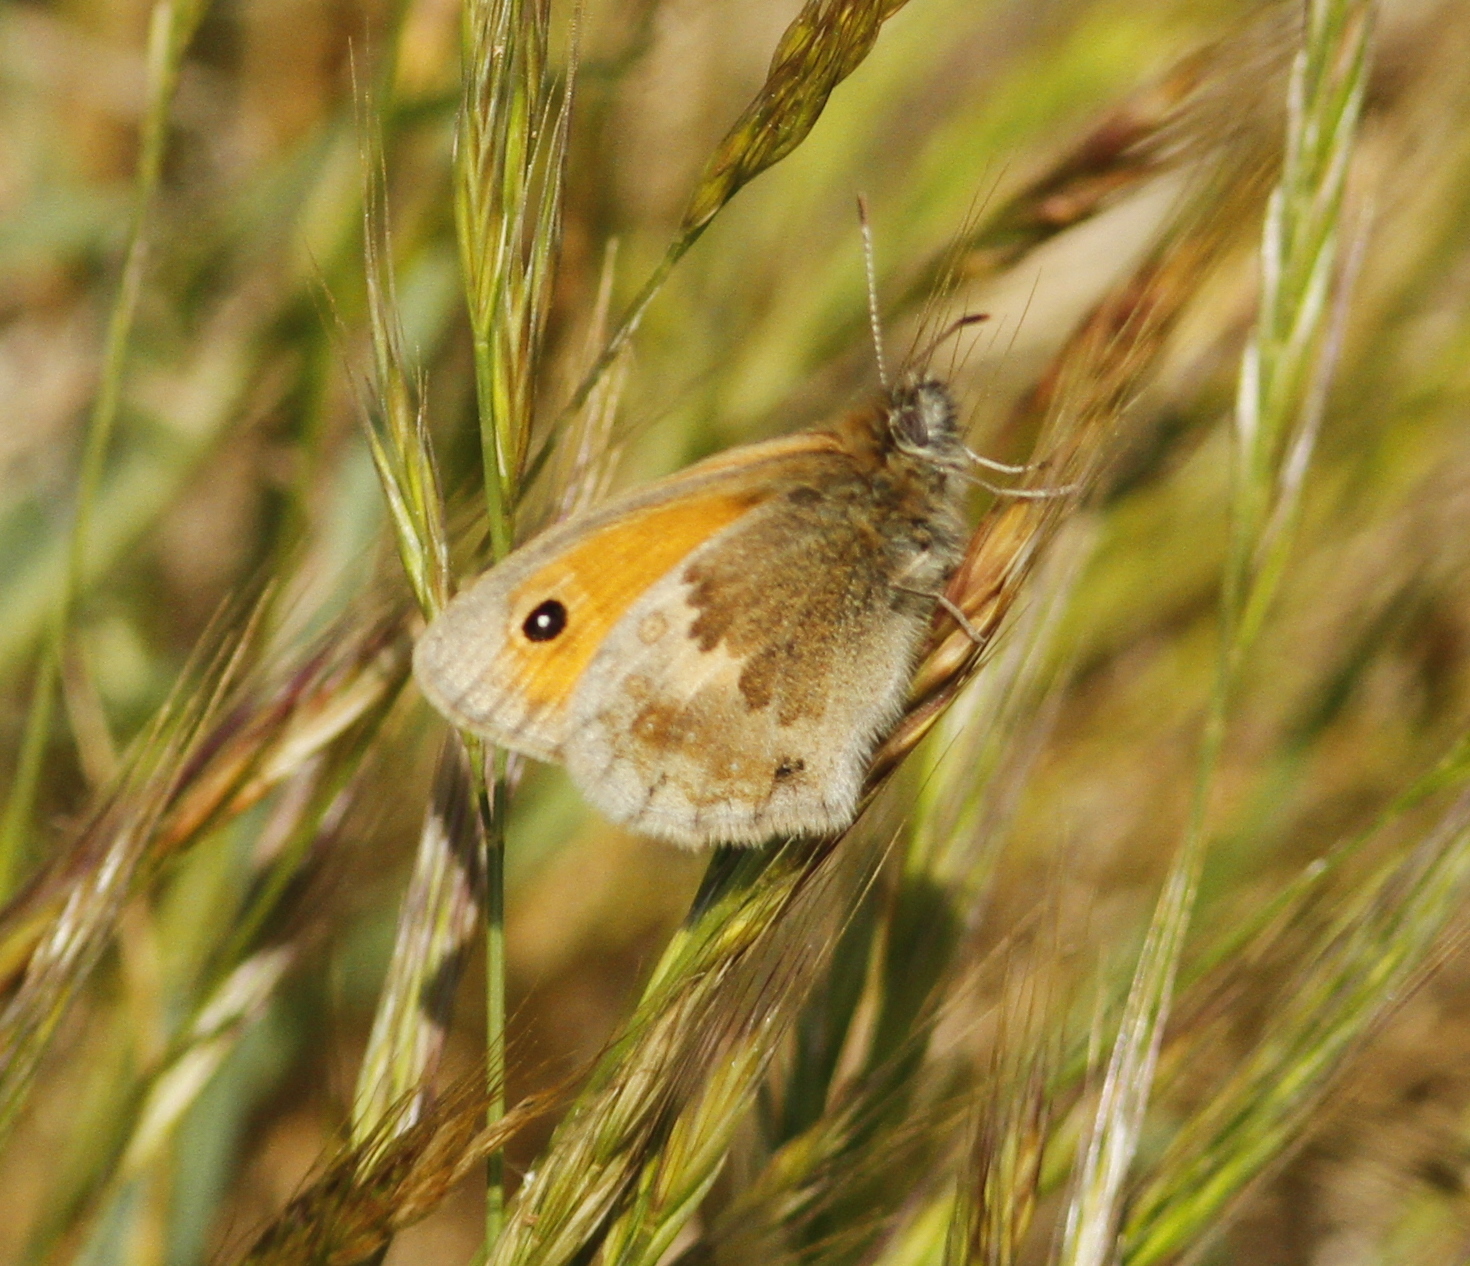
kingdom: Animalia
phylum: Arthropoda
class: Insecta
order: Lepidoptera
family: Nymphalidae
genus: Coenonympha
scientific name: Coenonympha pamphilus
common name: Small heath
